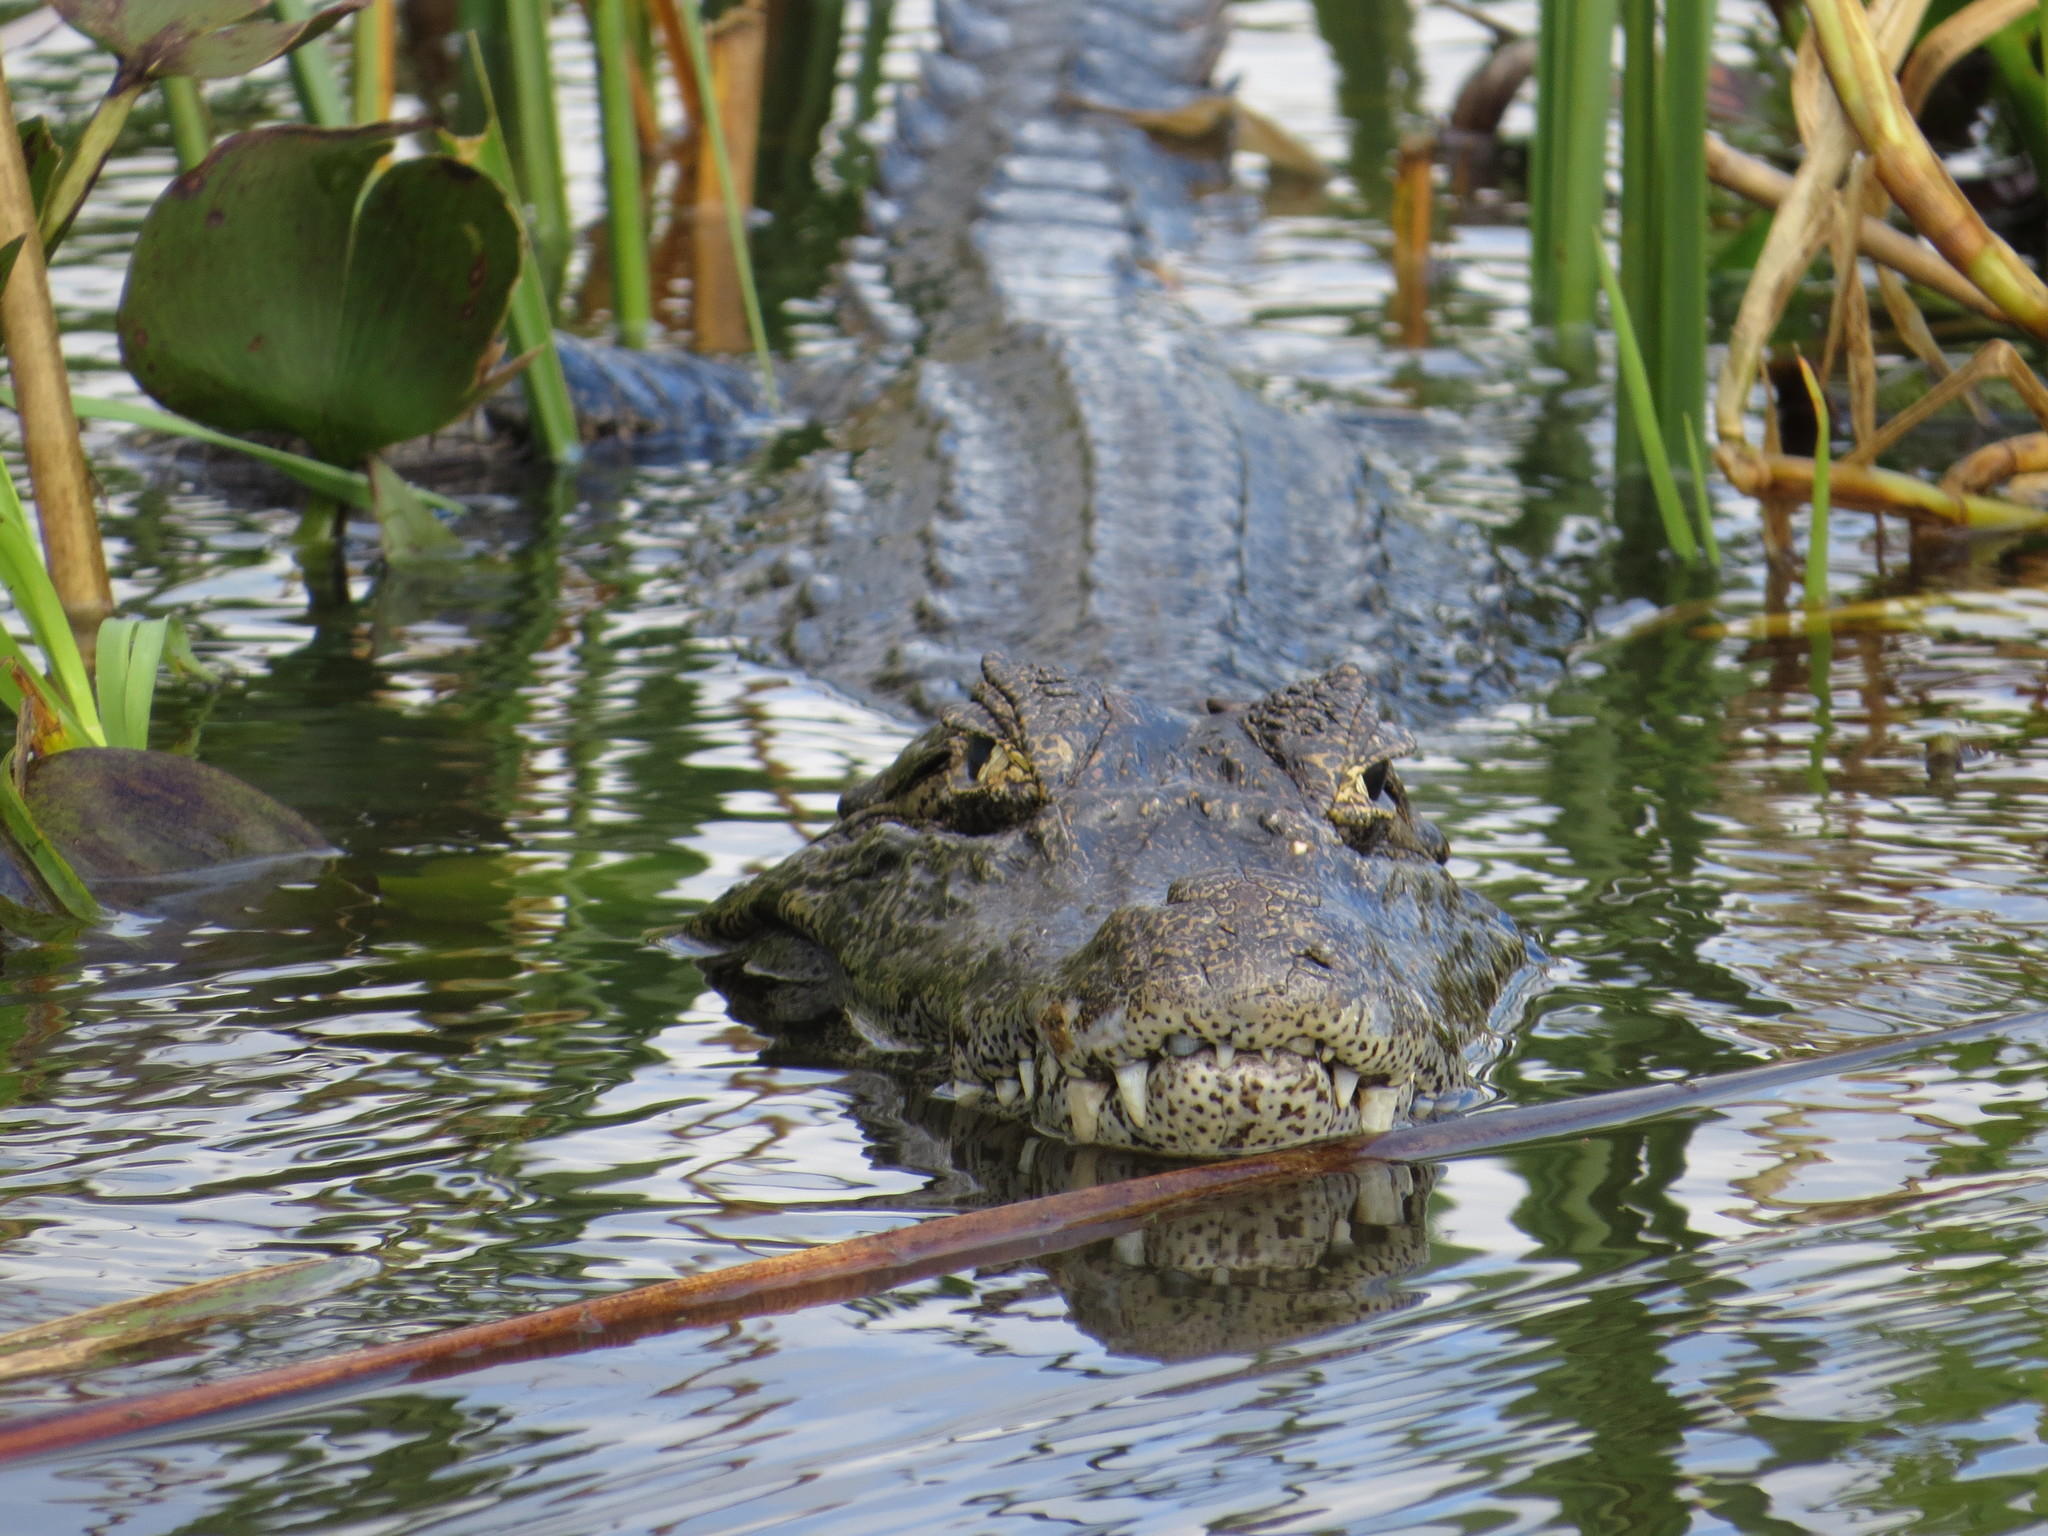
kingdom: Animalia
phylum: Chordata
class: Crocodylia
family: Alligatoridae
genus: Caiman
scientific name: Caiman yacare
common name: Yacare caiman
